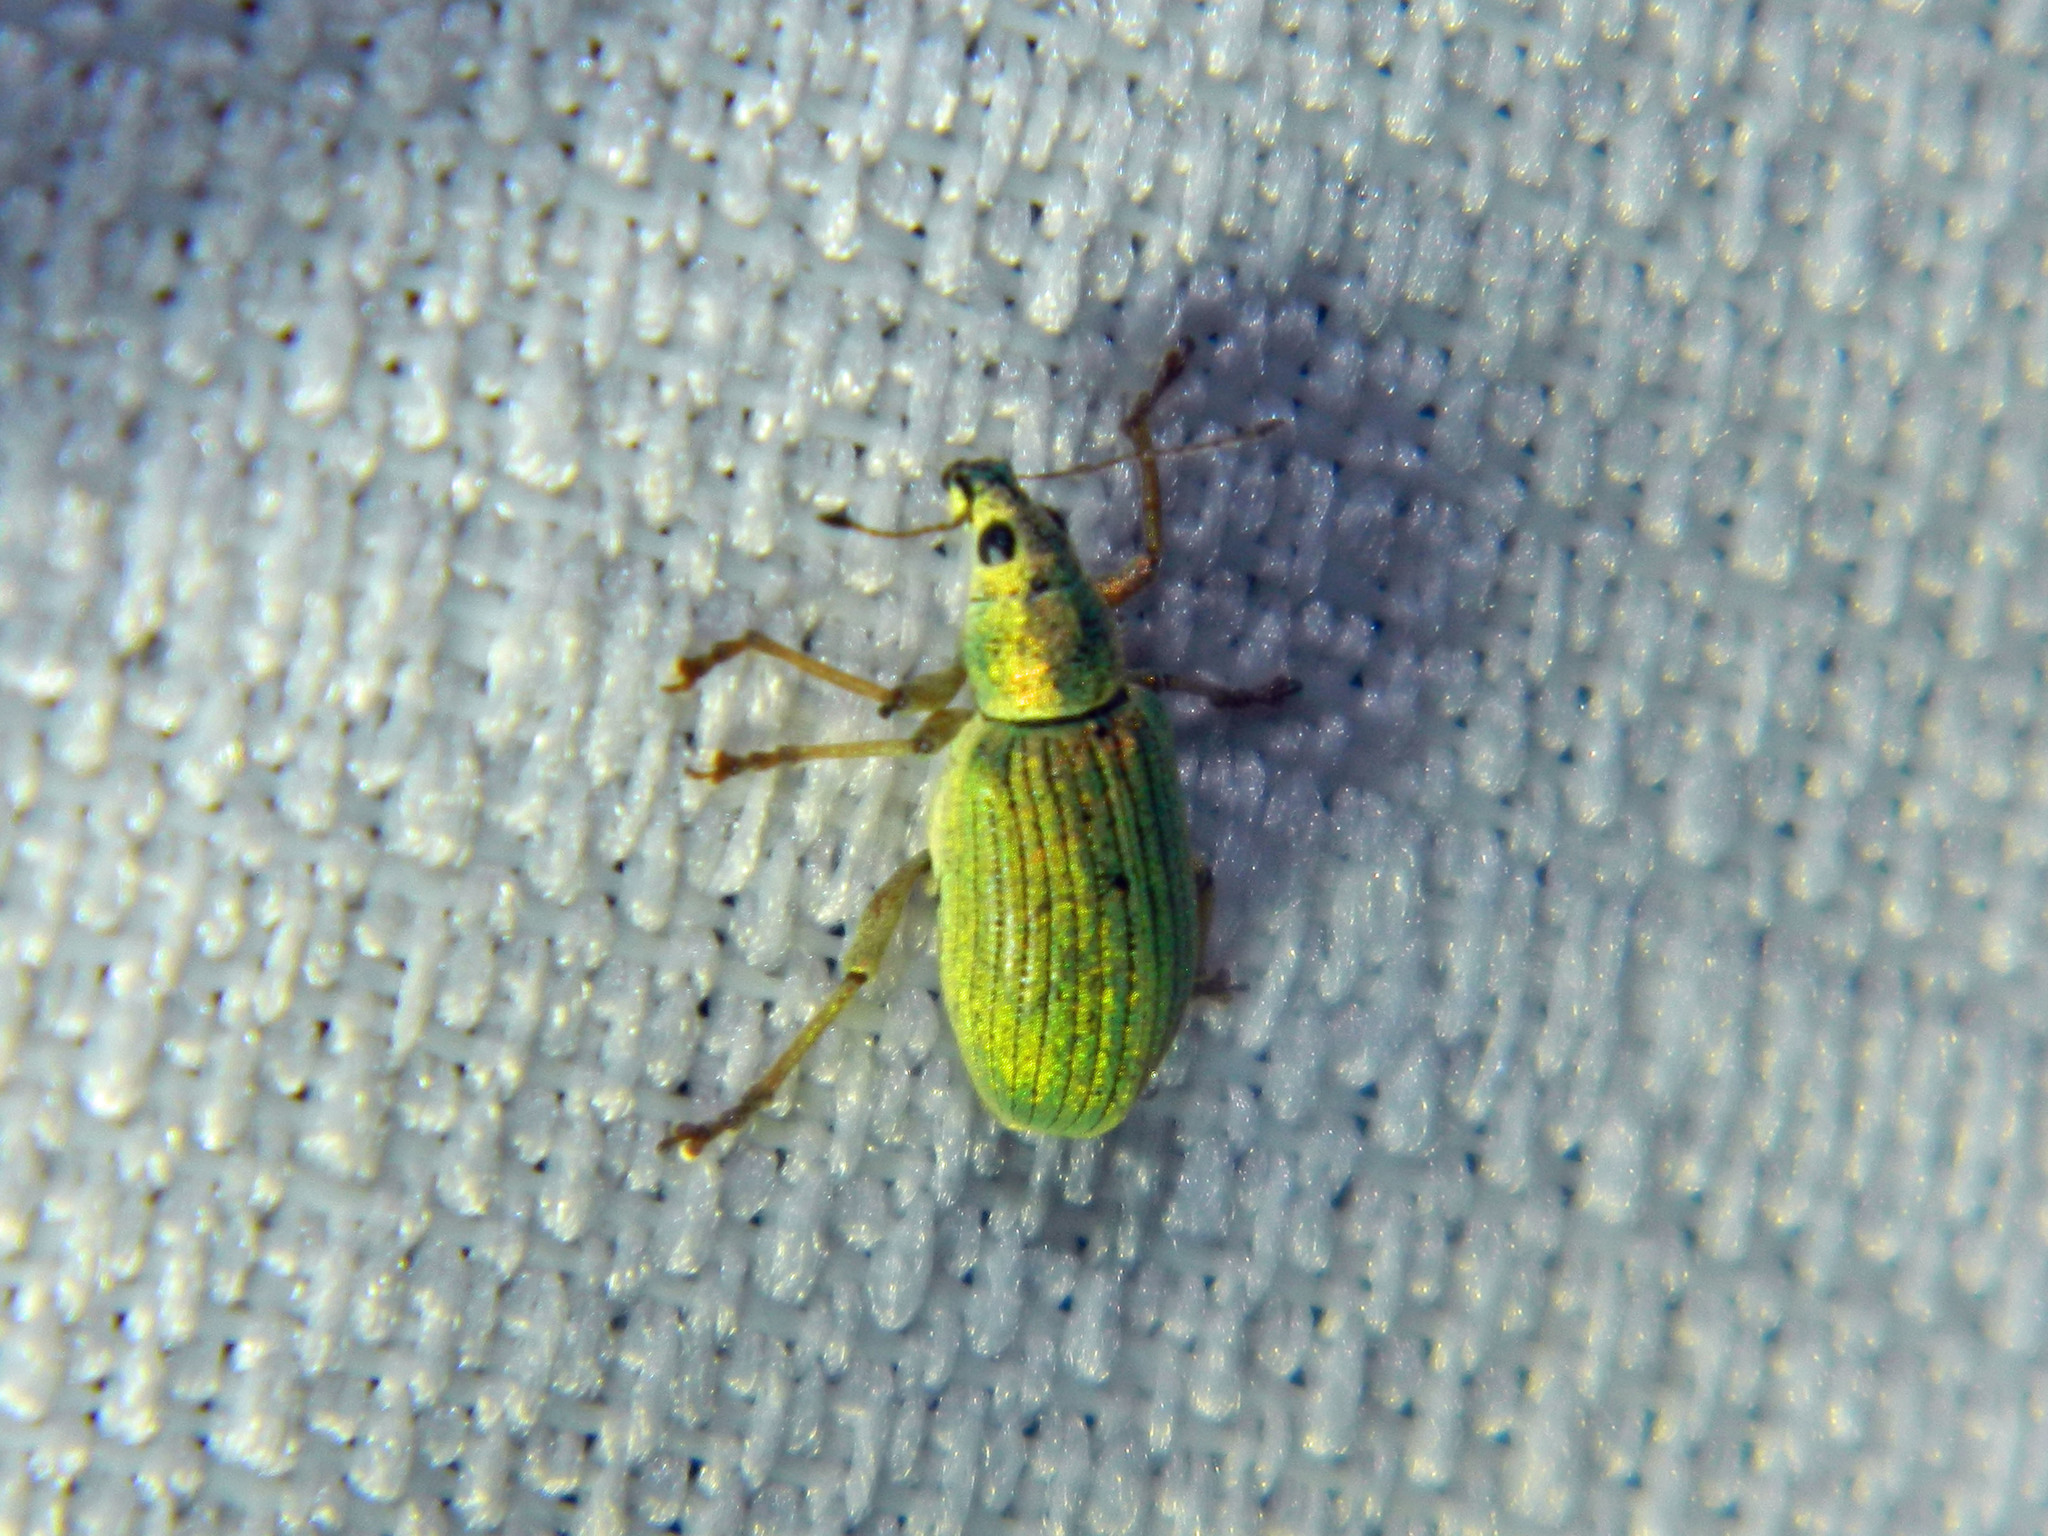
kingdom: Animalia
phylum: Arthropoda
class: Insecta
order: Coleoptera
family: Curculionidae
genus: Polydrusus
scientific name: Polydrusus formosus
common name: Weevil
